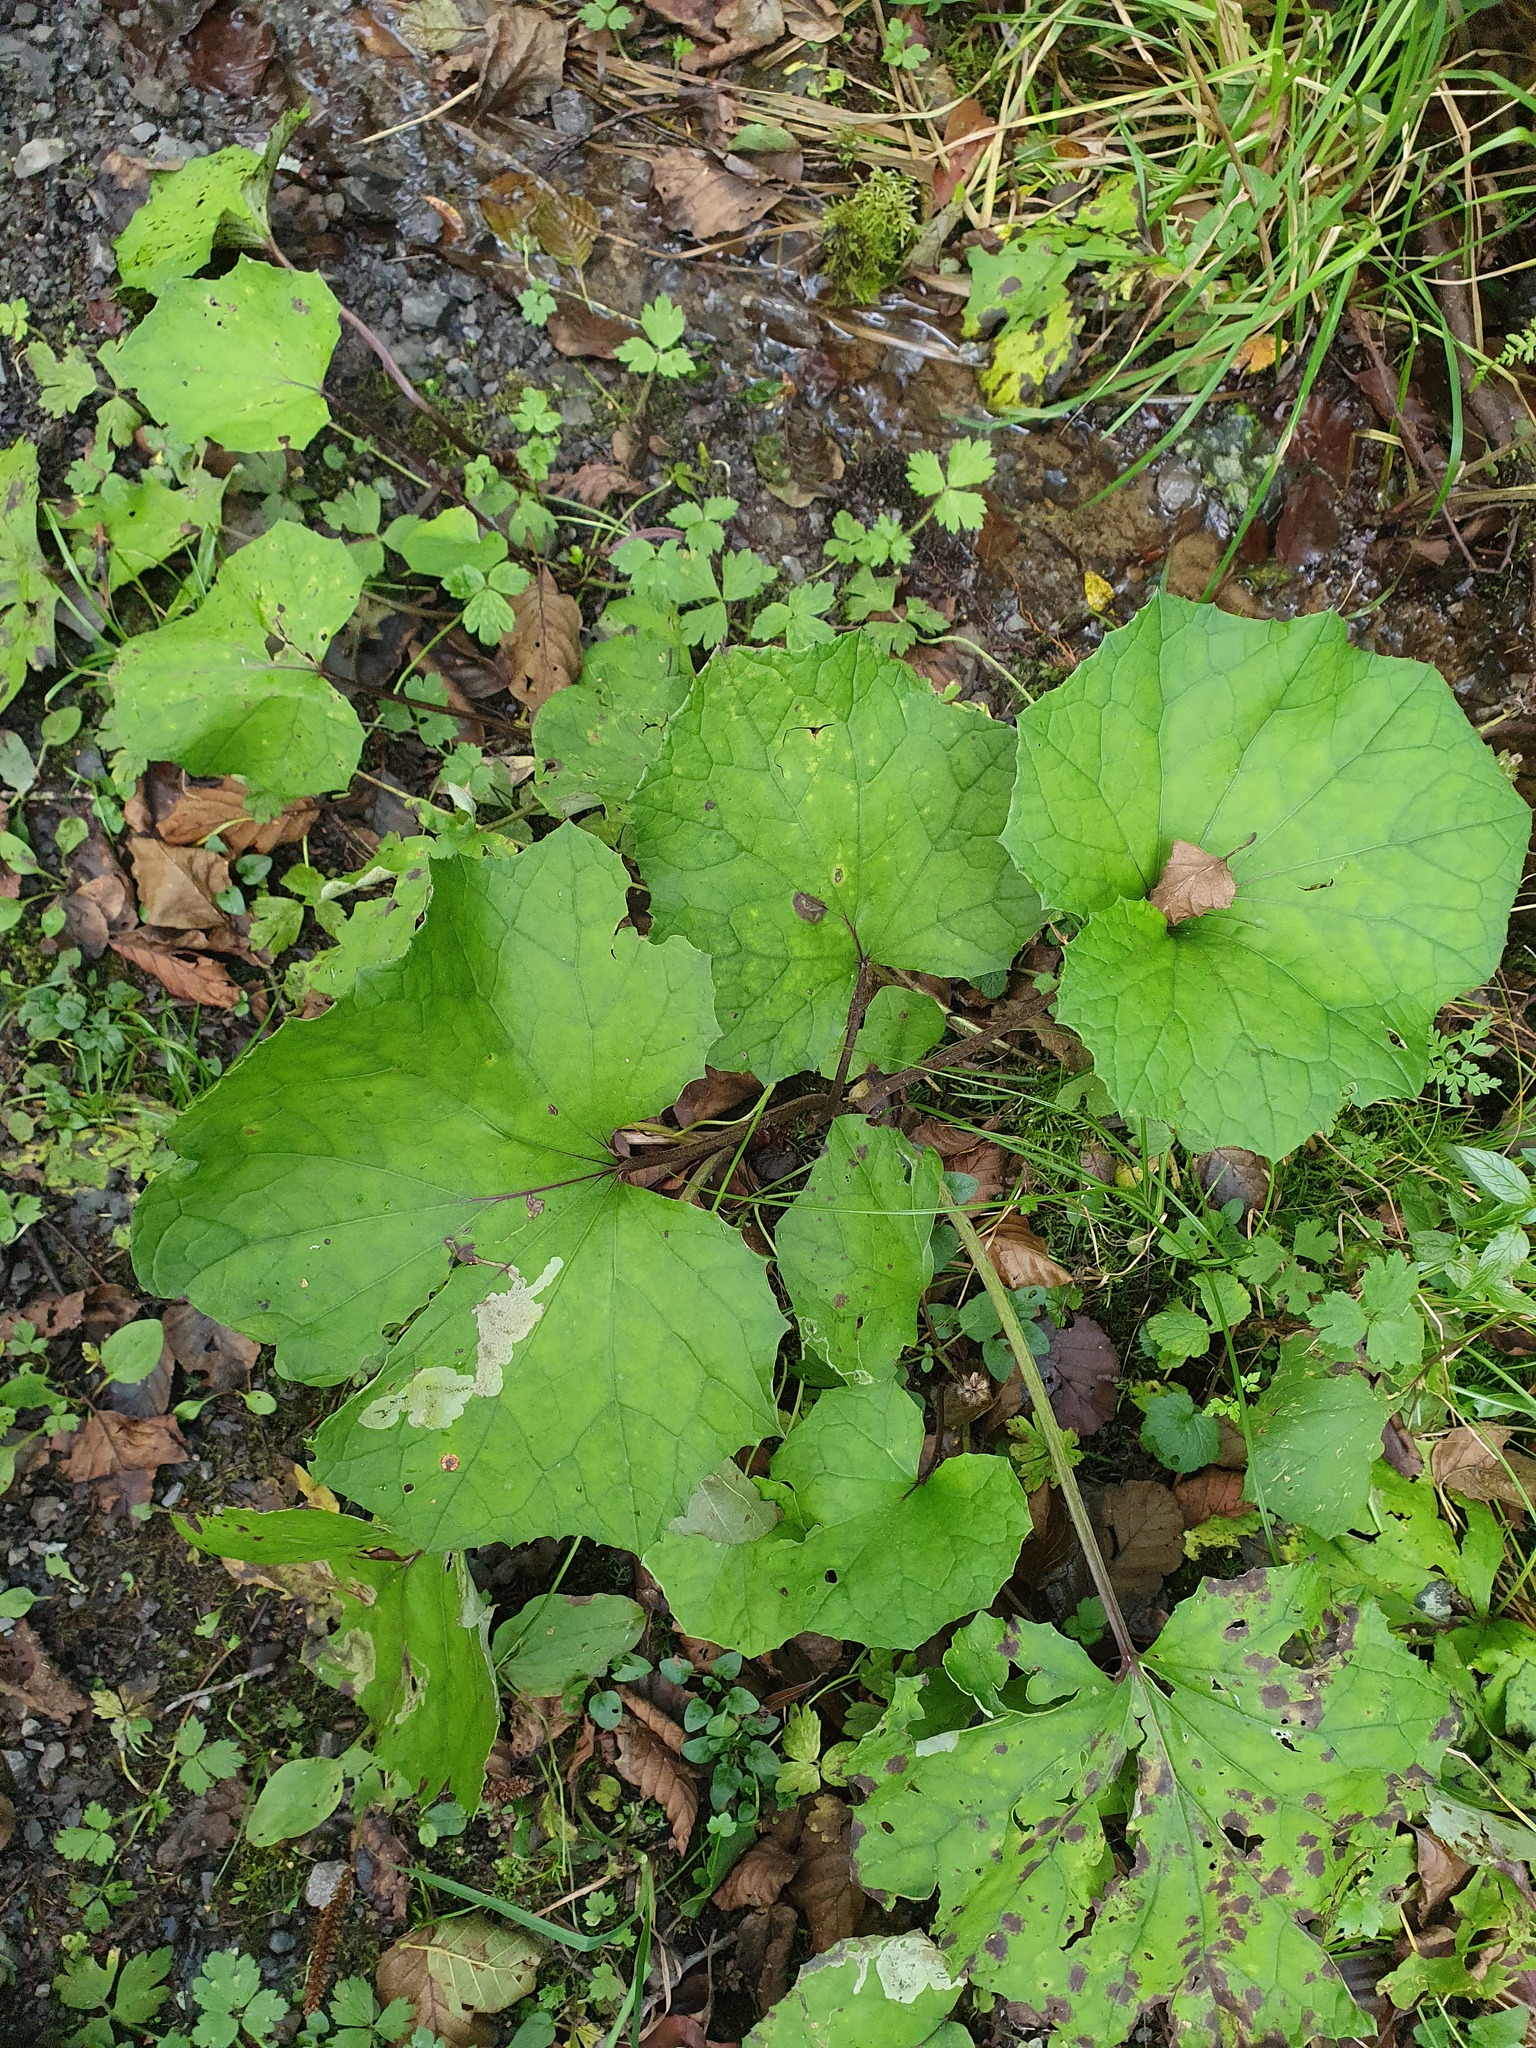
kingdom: Plantae
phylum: Tracheophyta
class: Magnoliopsida
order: Asterales
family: Asteraceae
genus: Tussilago
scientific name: Tussilago farfara
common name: Coltsfoot
